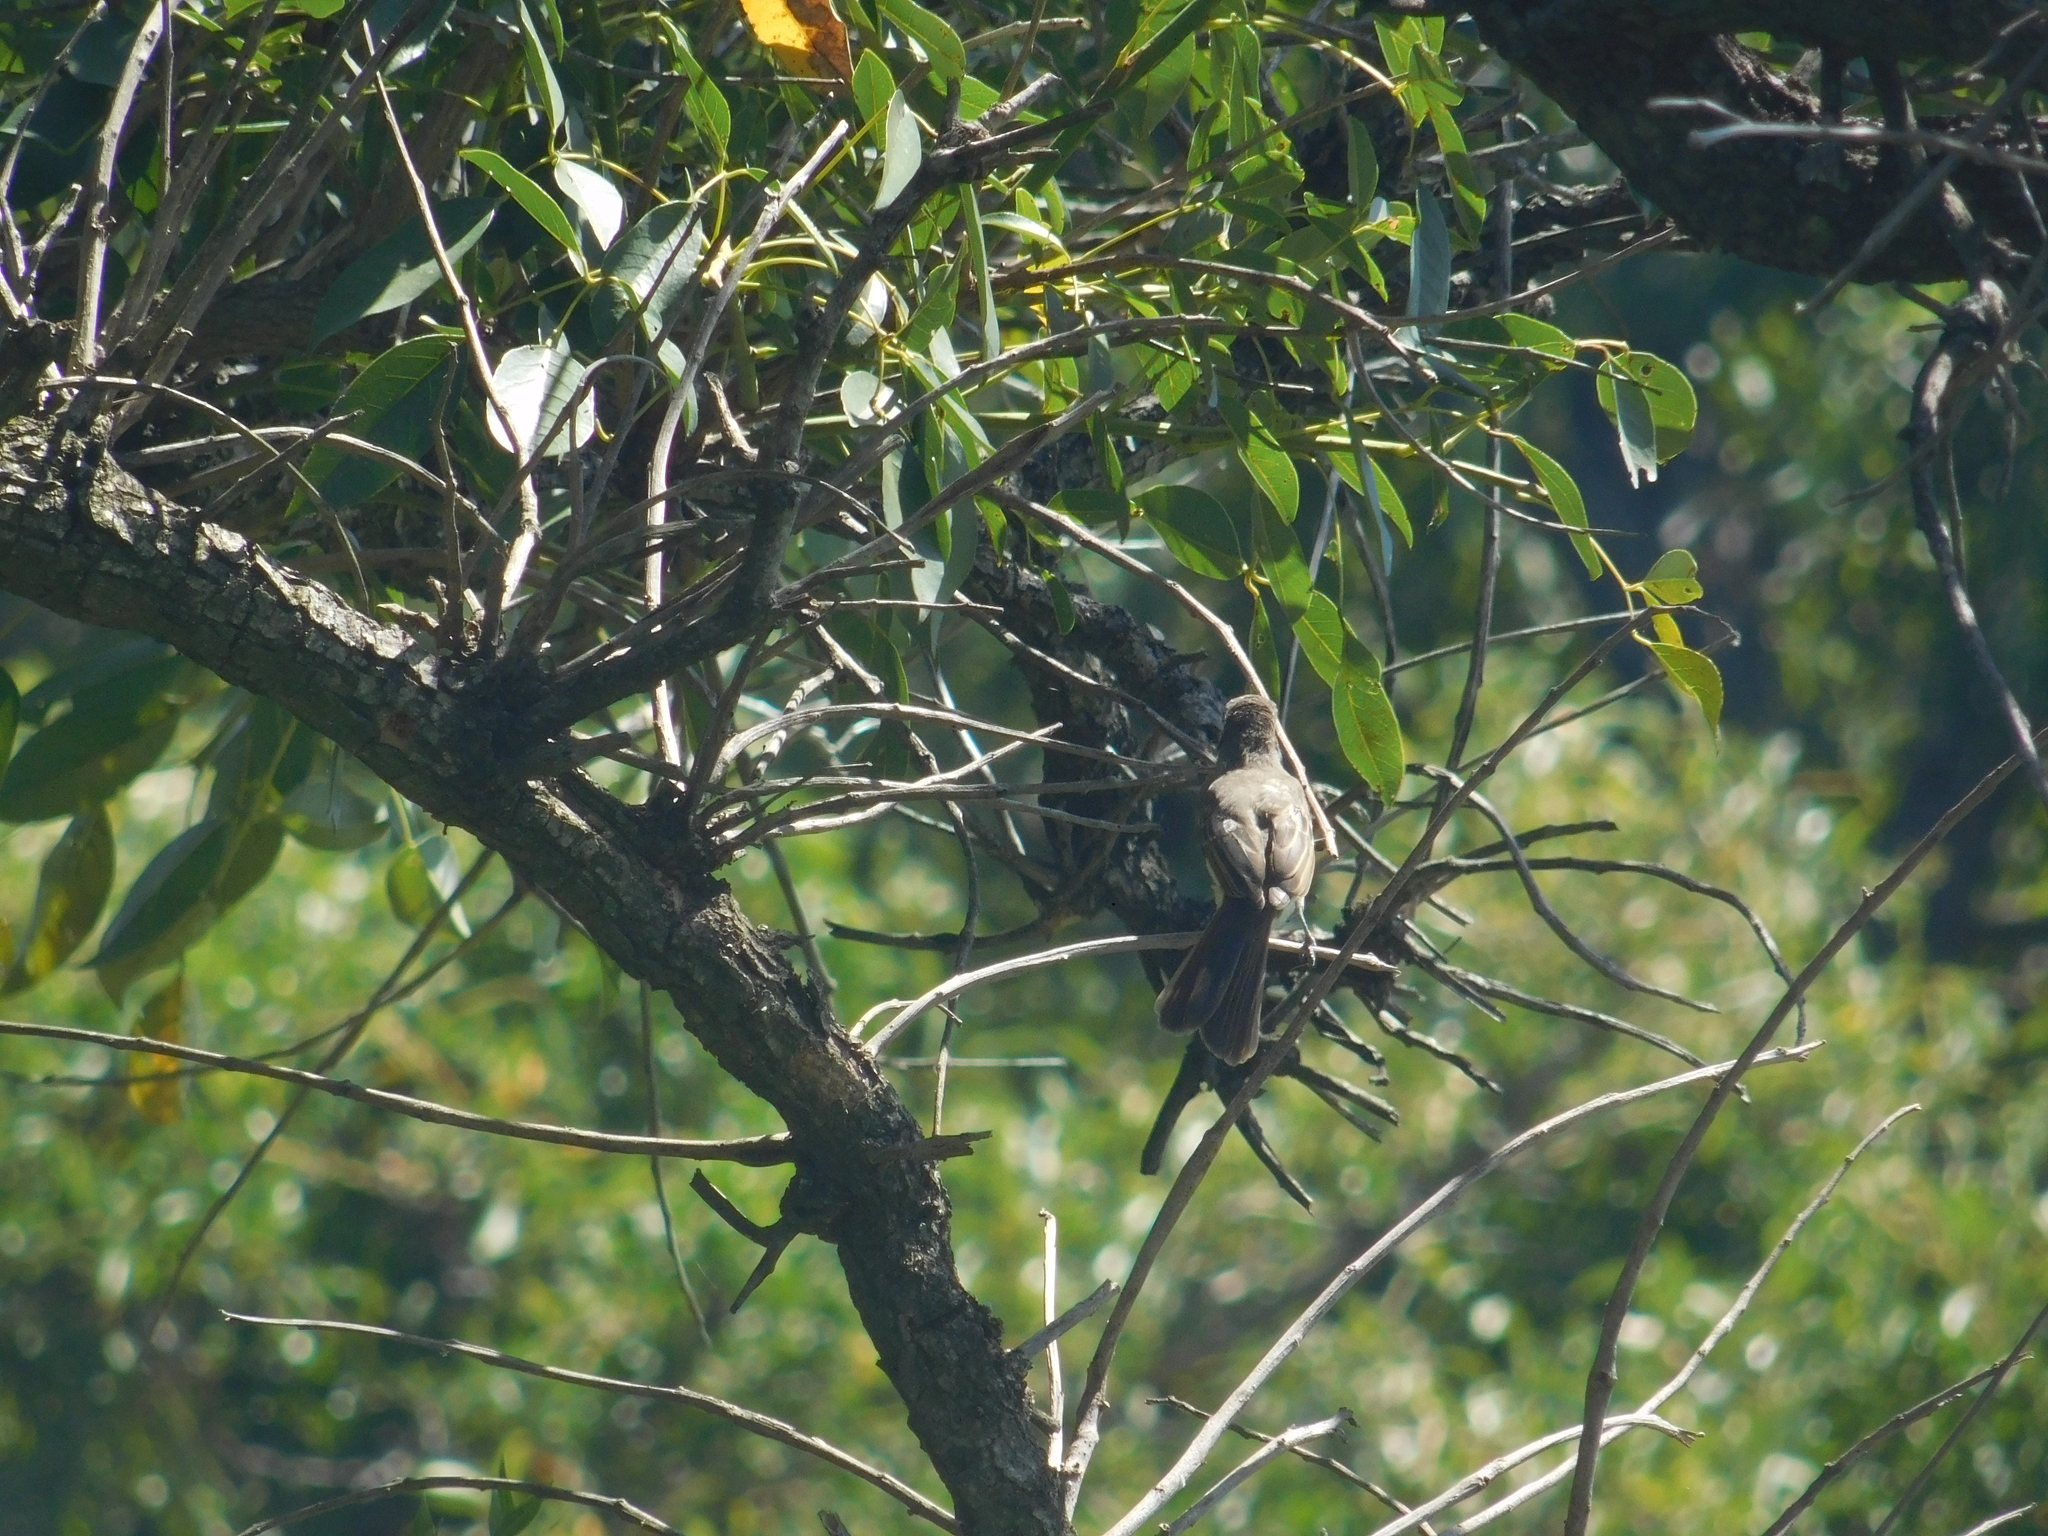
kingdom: Animalia
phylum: Chordata
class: Aves
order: Passeriformes
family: Tyrannidae
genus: Myiarchus
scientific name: Myiarchus swainsoni
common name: Swainson's flycatcher
